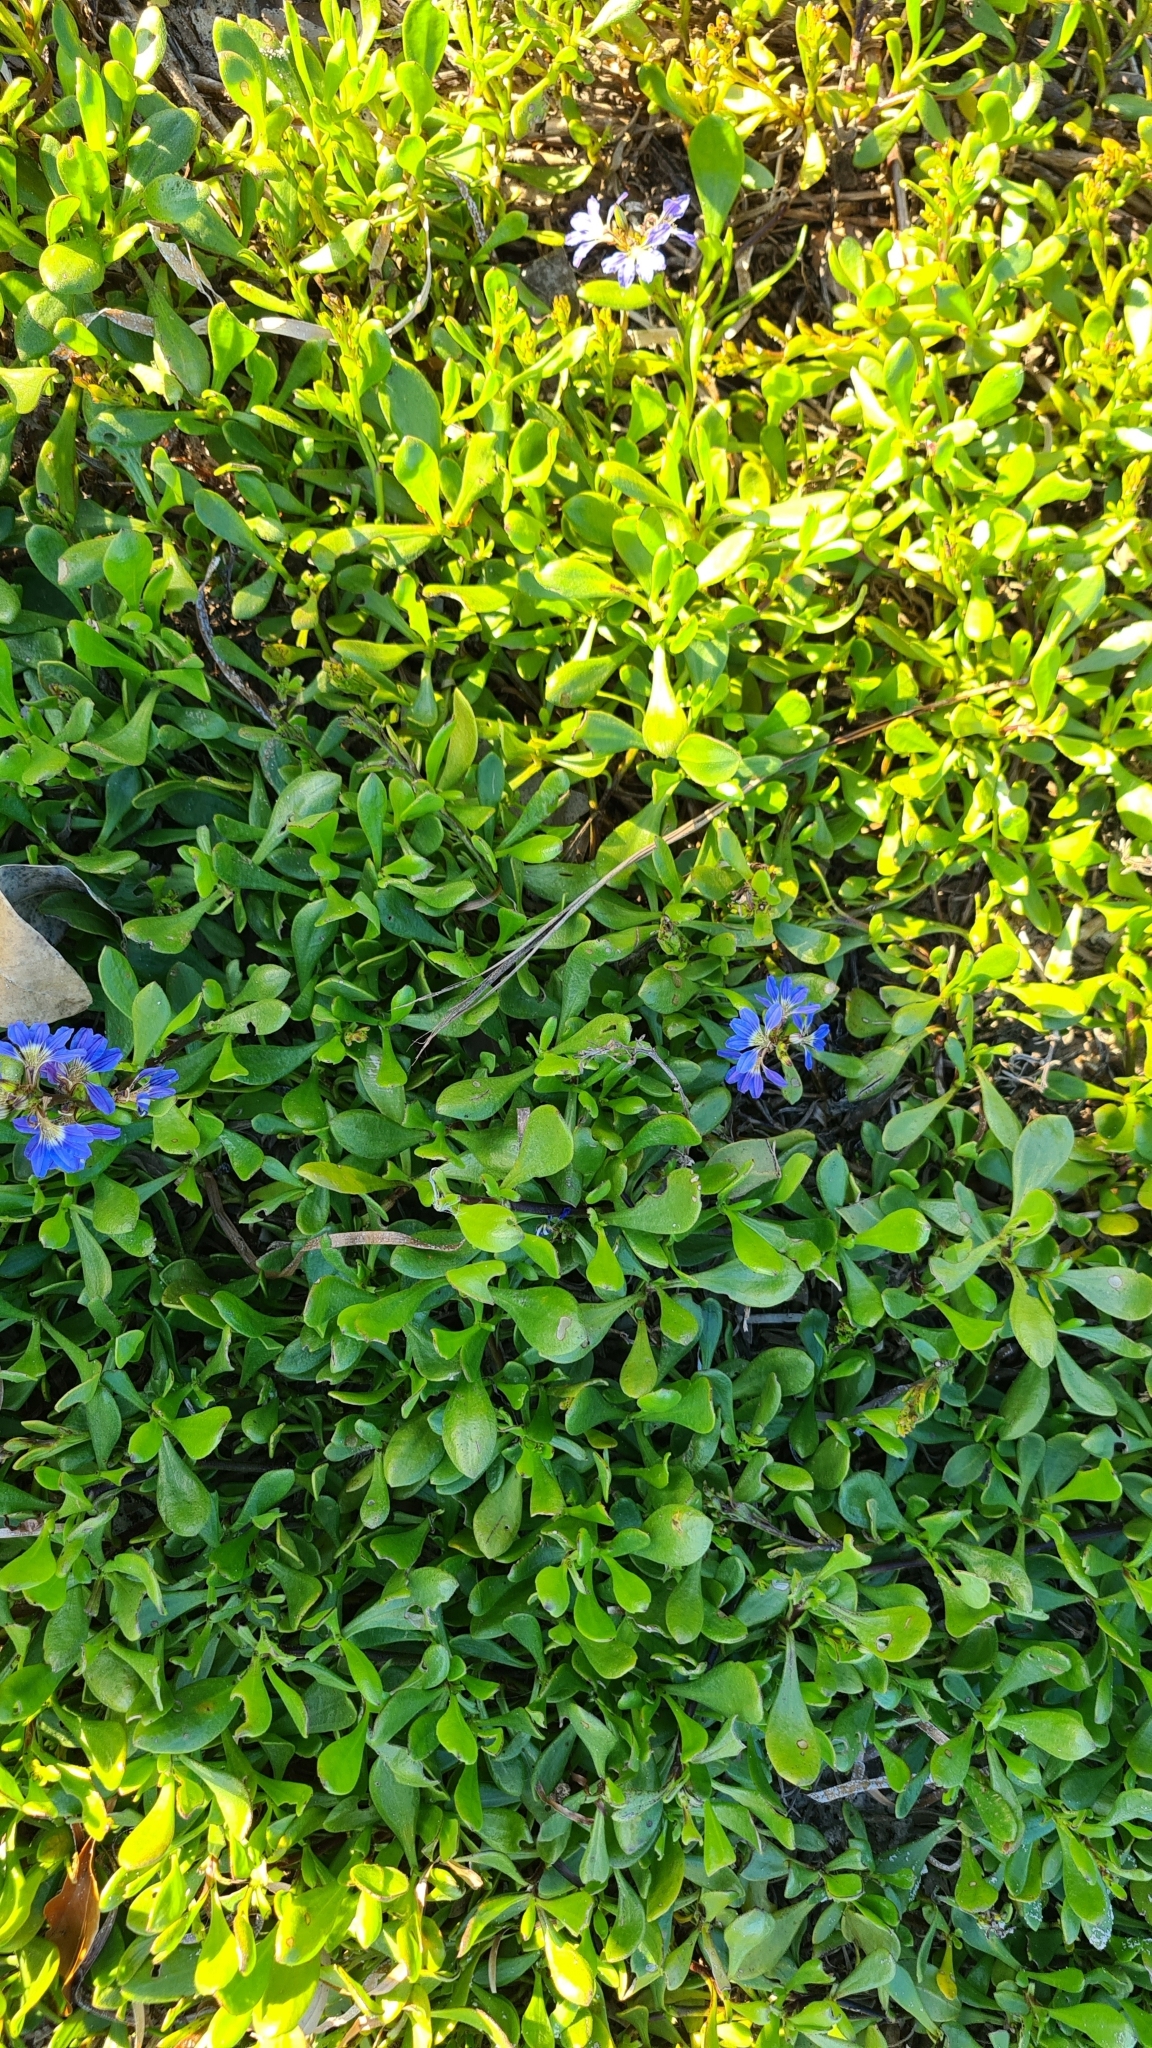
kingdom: Plantae
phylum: Tracheophyta
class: Magnoliopsida
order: Asterales
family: Goodeniaceae
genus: Scaevola
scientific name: Scaevola calendulacea
